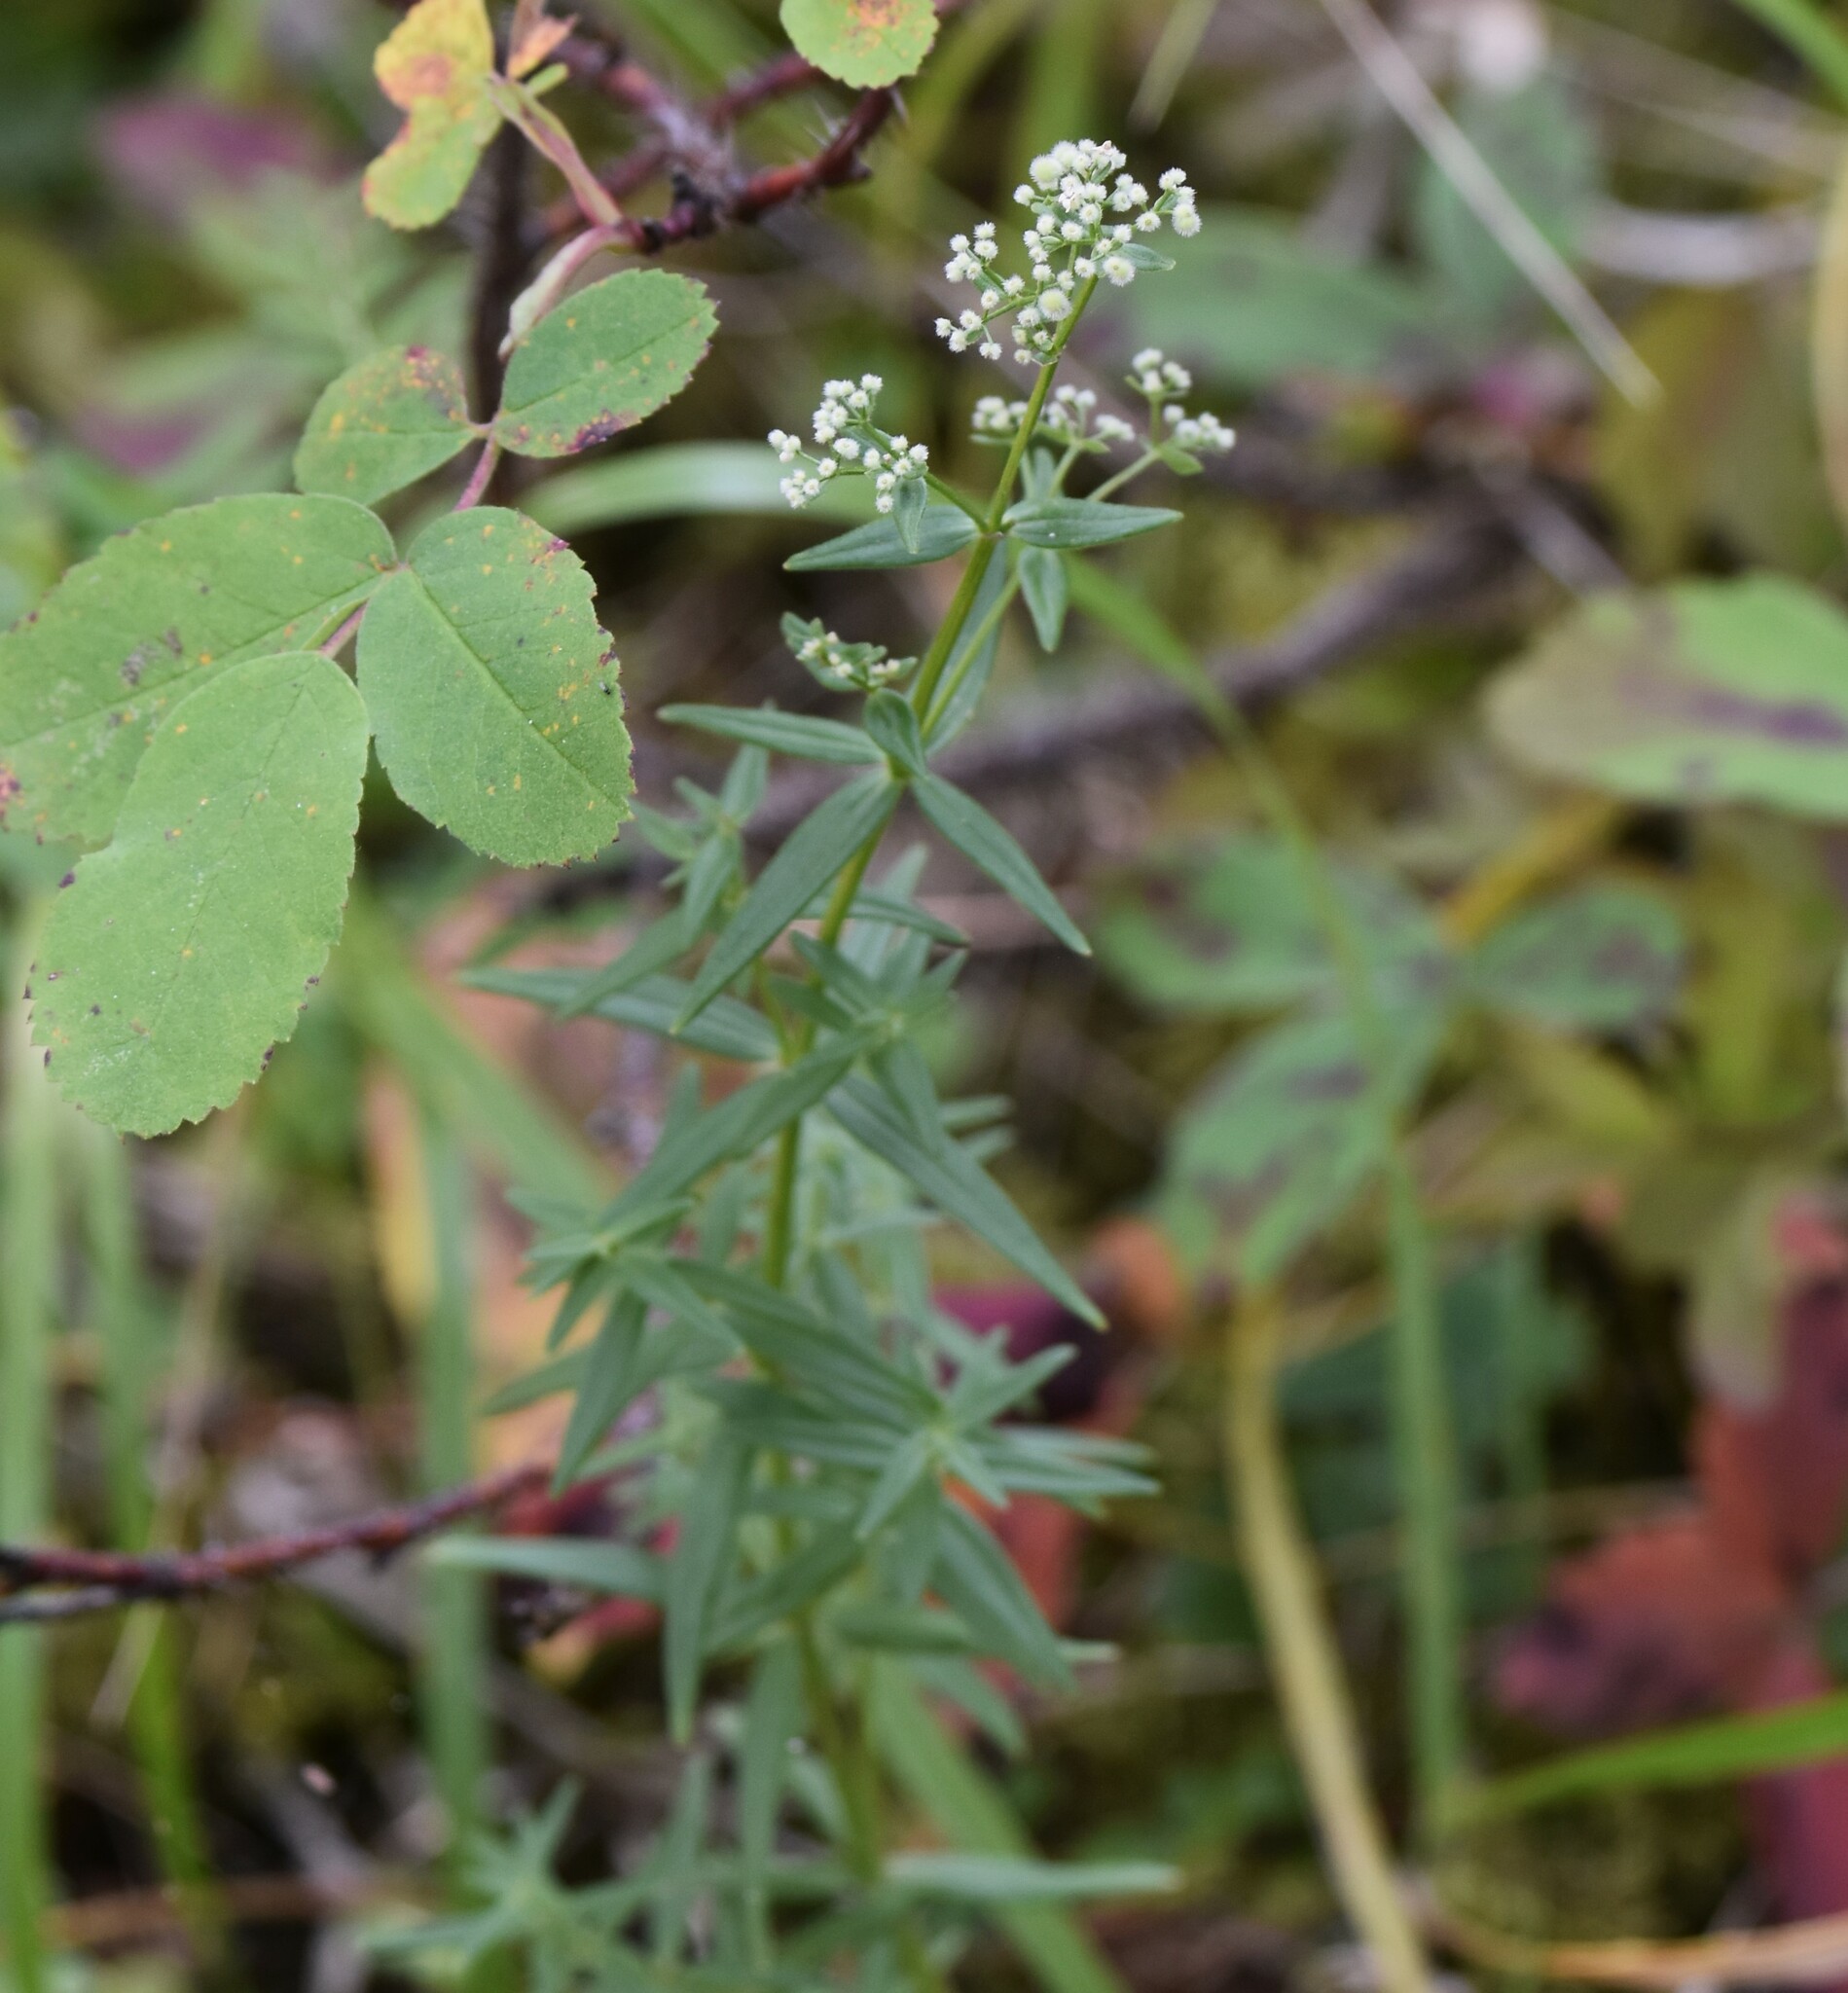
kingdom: Plantae
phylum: Tracheophyta
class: Magnoliopsida
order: Gentianales
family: Rubiaceae
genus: Galium
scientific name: Galium boreale
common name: Northern bedstraw
